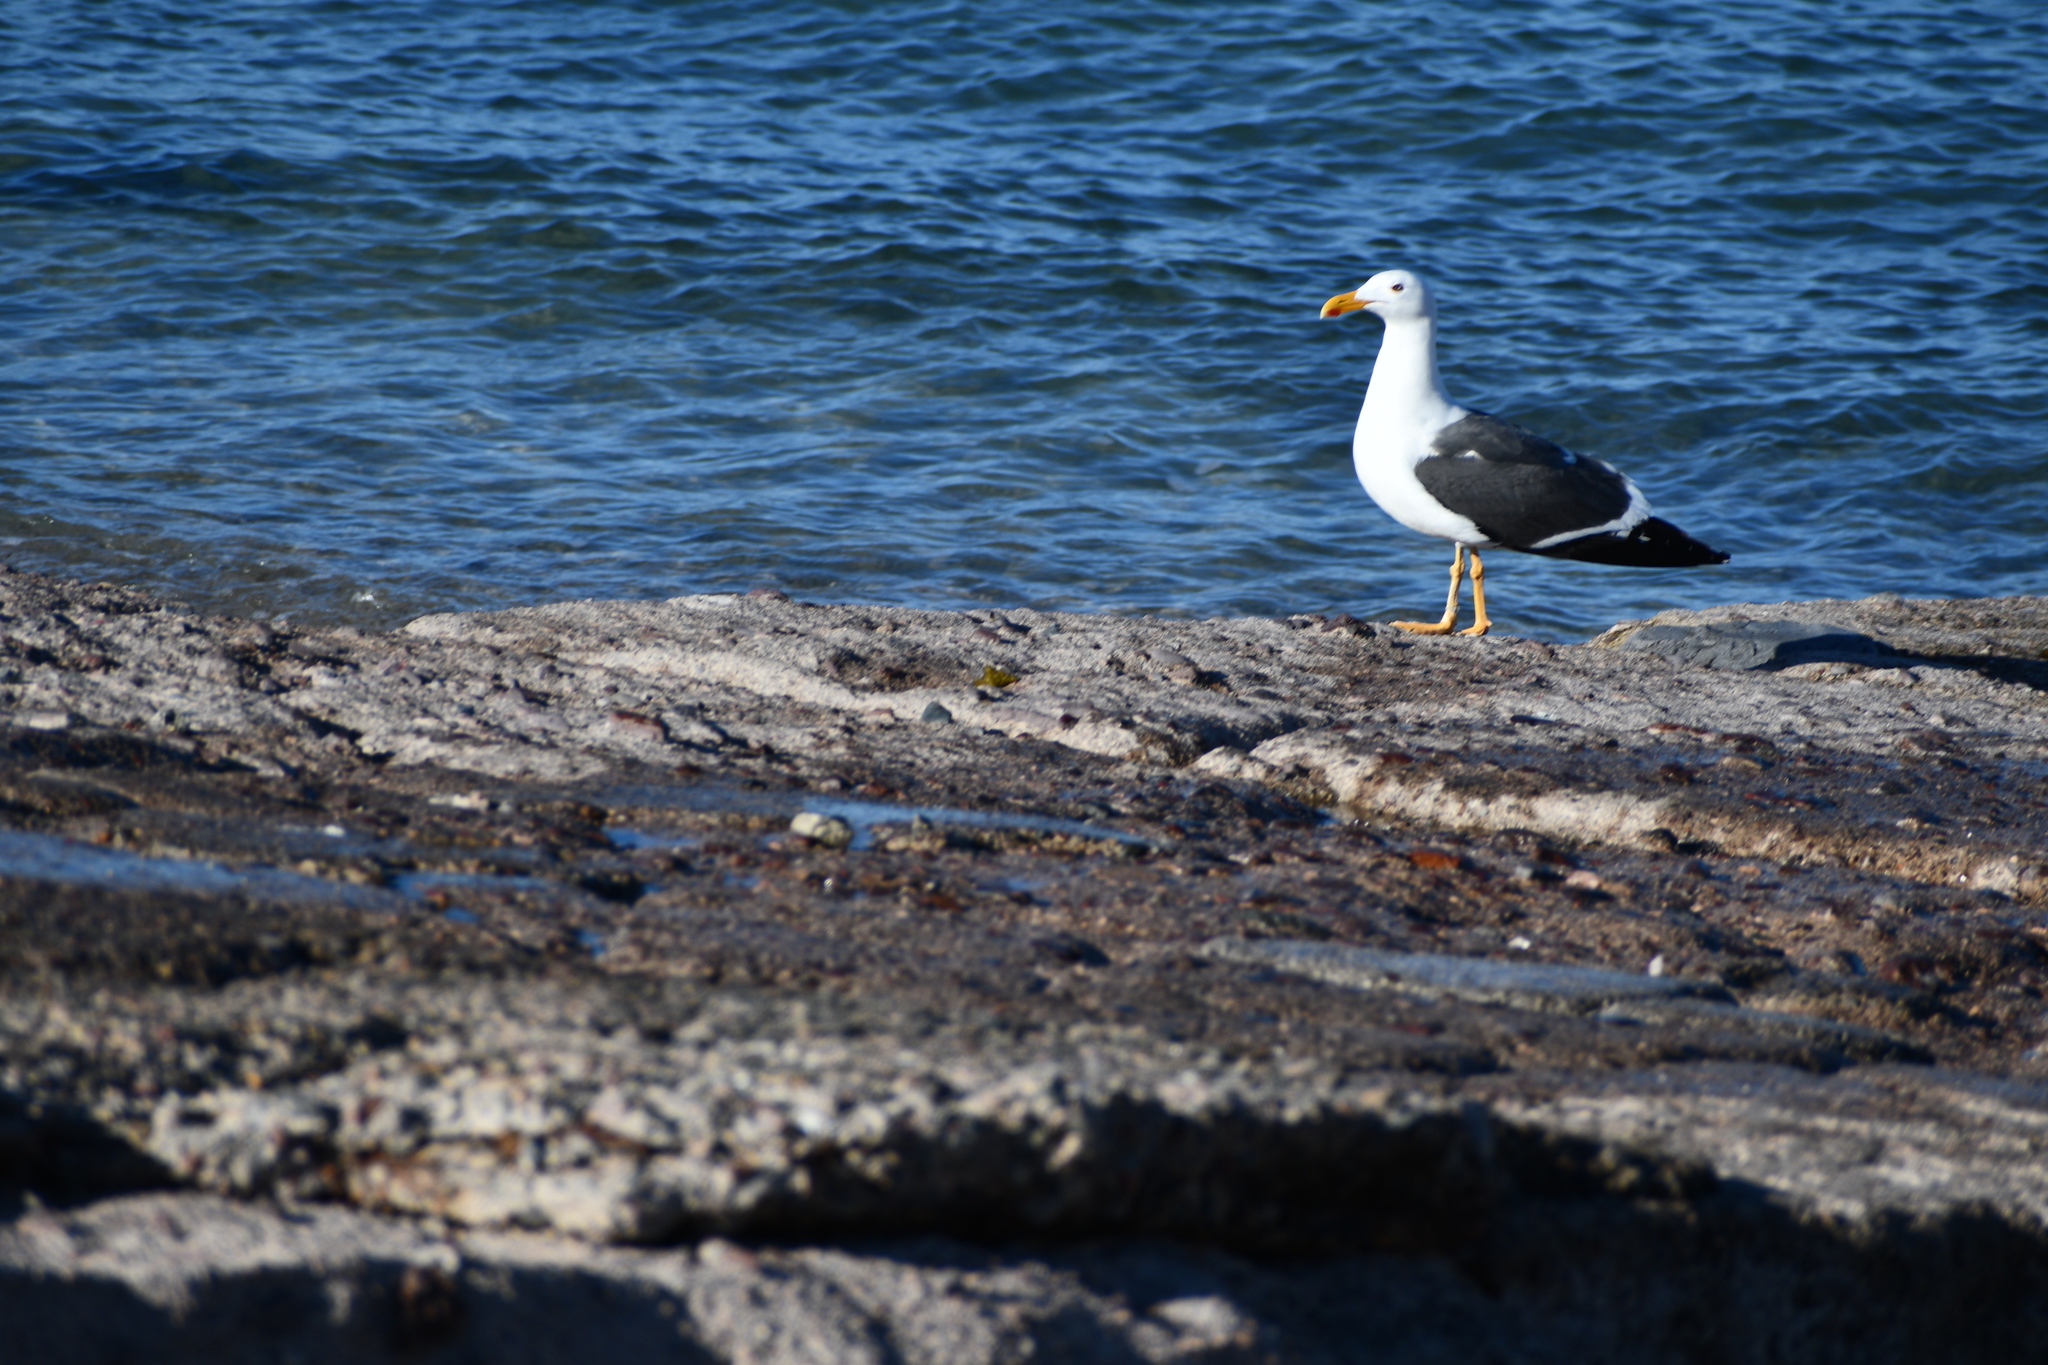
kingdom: Animalia
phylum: Chordata
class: Aves
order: Charadriiformes
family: Laridae
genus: Larus
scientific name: Larus livens
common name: Yellow-footed gull
